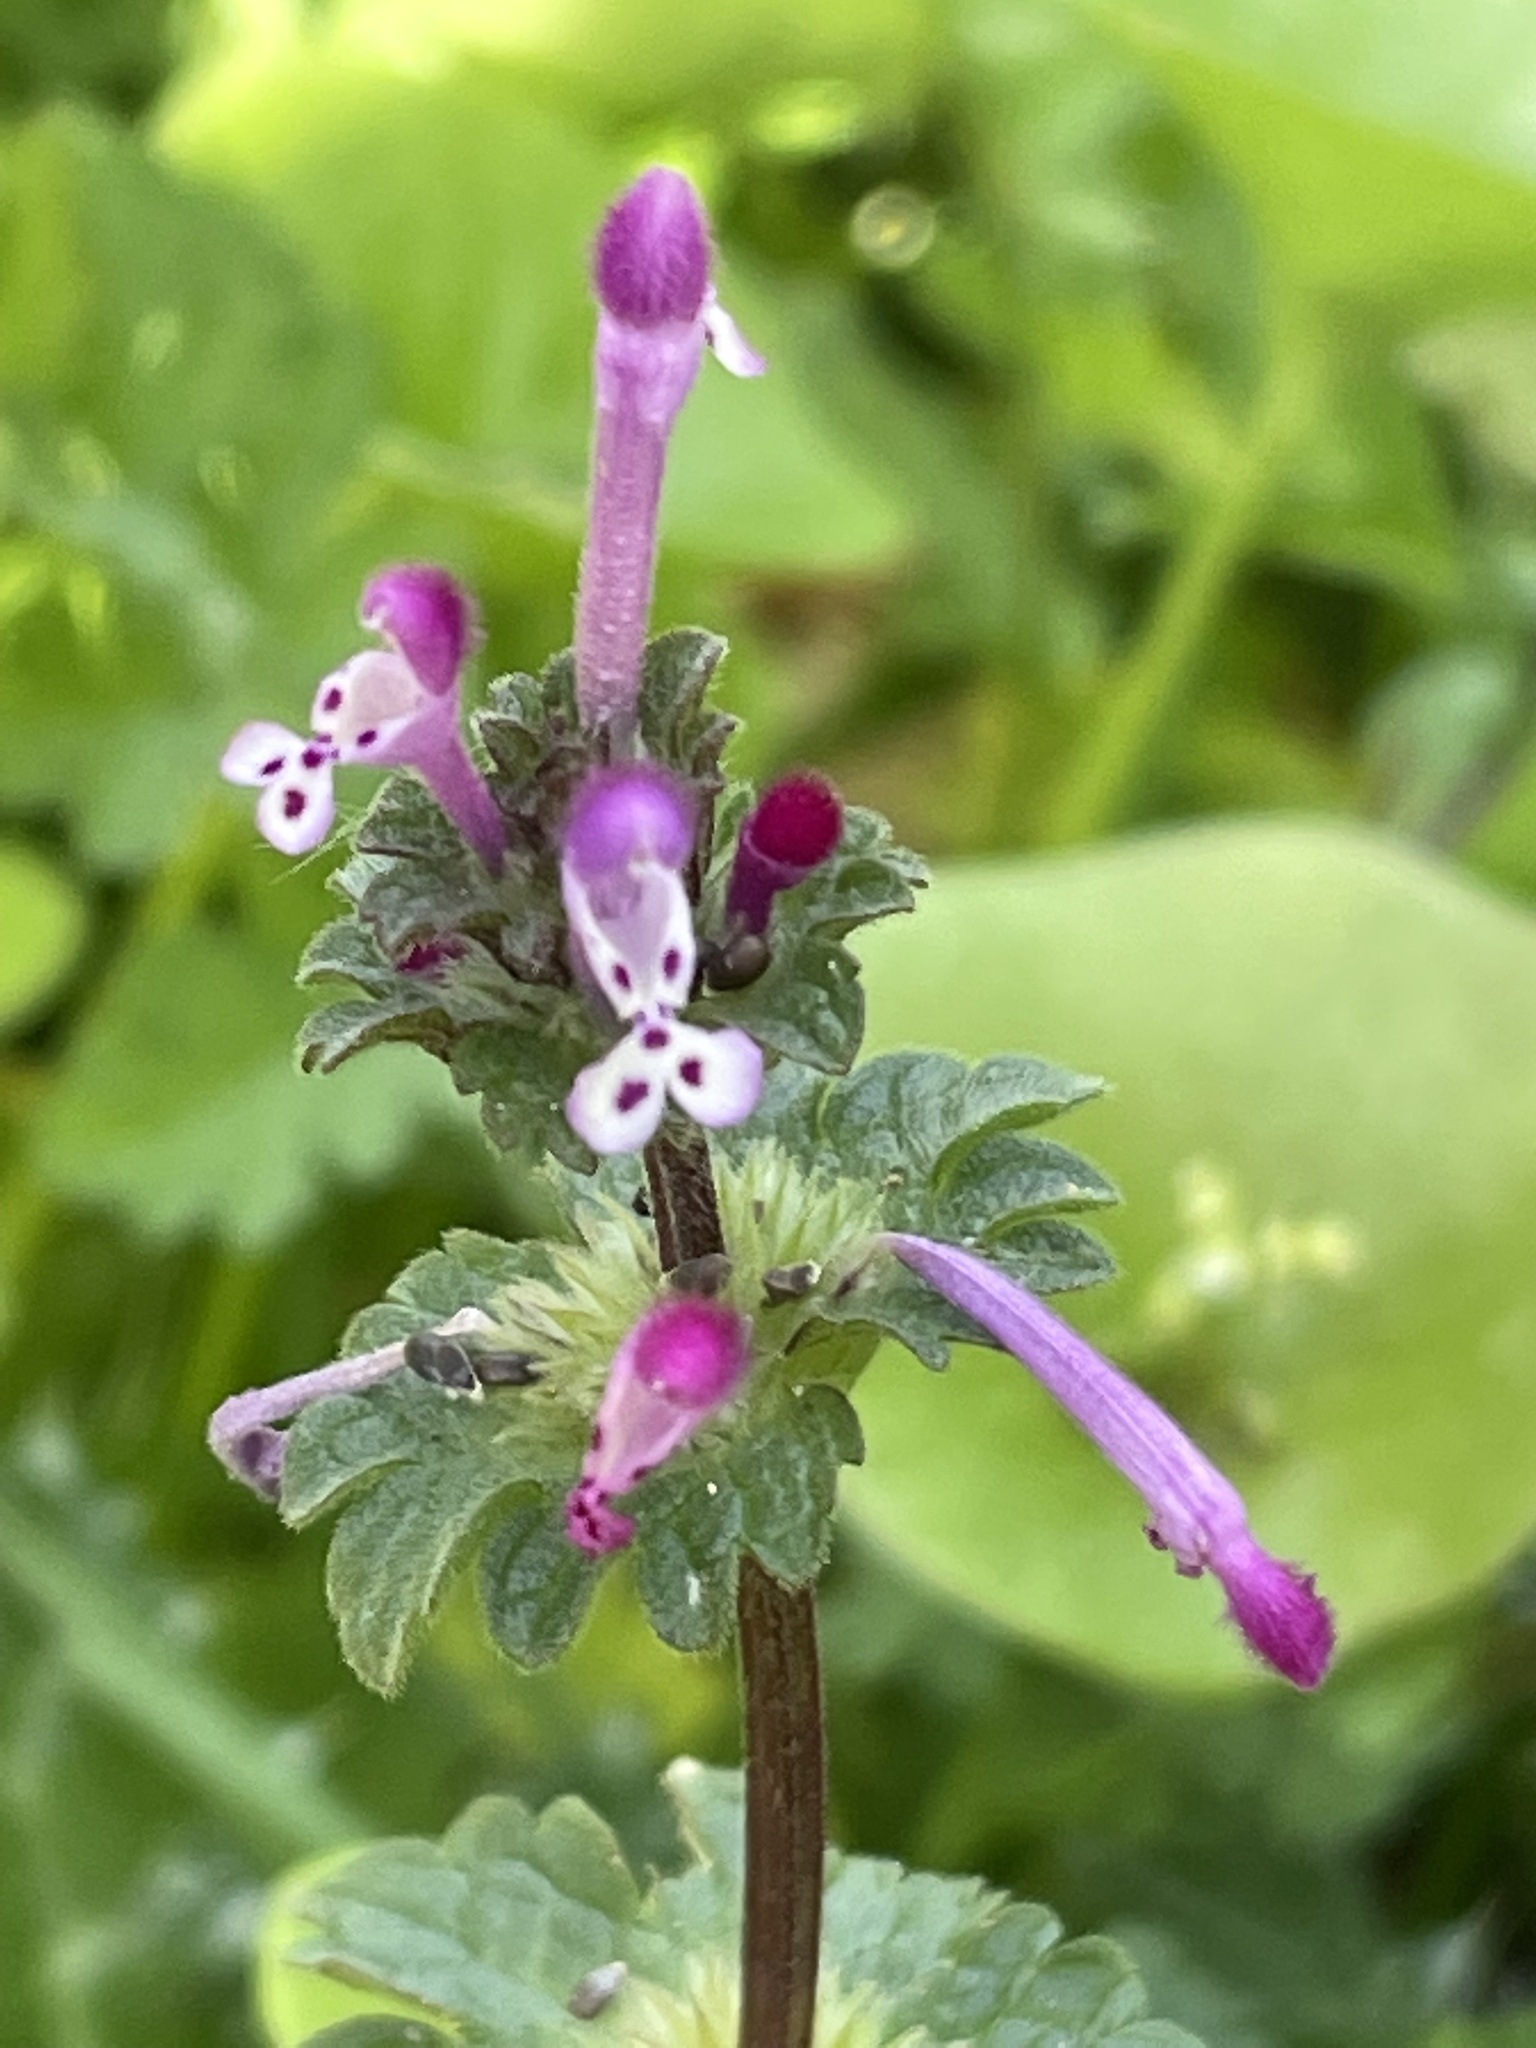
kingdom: Plantae
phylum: Tracheophyta
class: Magnoliopsida
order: Lamiales
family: Lamiaceae
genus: Lamium
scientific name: Lamium amplexicaule
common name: Henbit dead-nettle
